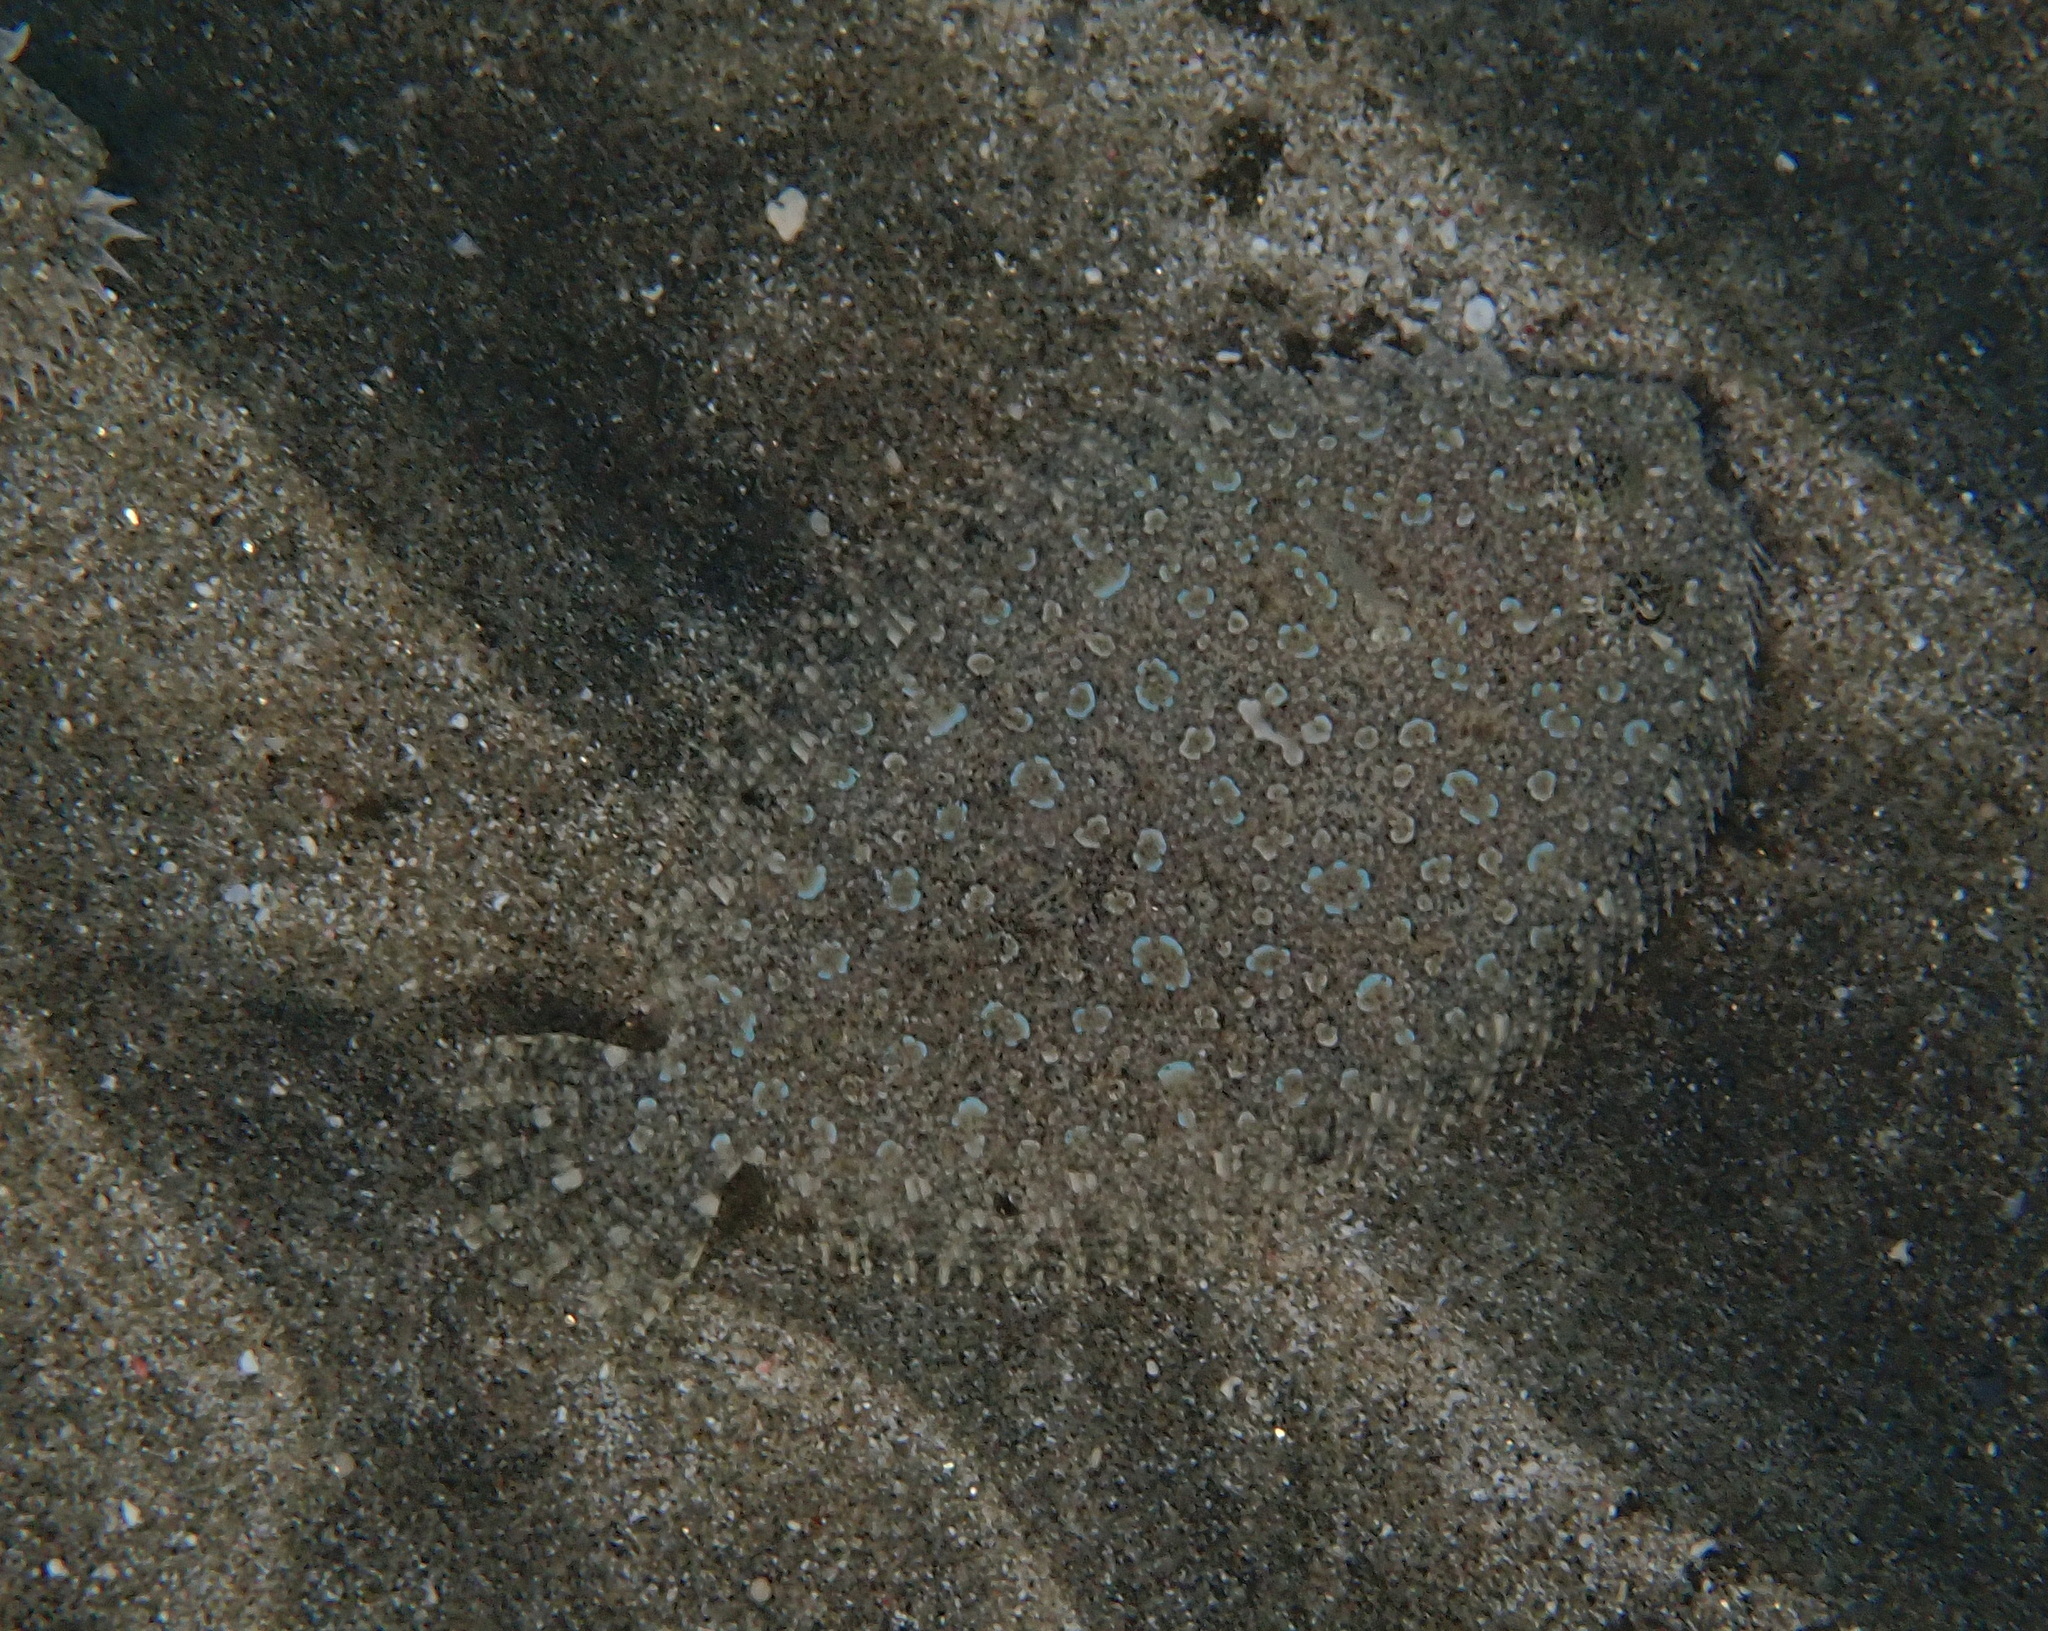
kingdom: Animalia
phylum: Chordata
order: Pleuronectiformes
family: Bothidae
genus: Bothus
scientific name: Bothus pantherinus
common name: Leopard flounder
